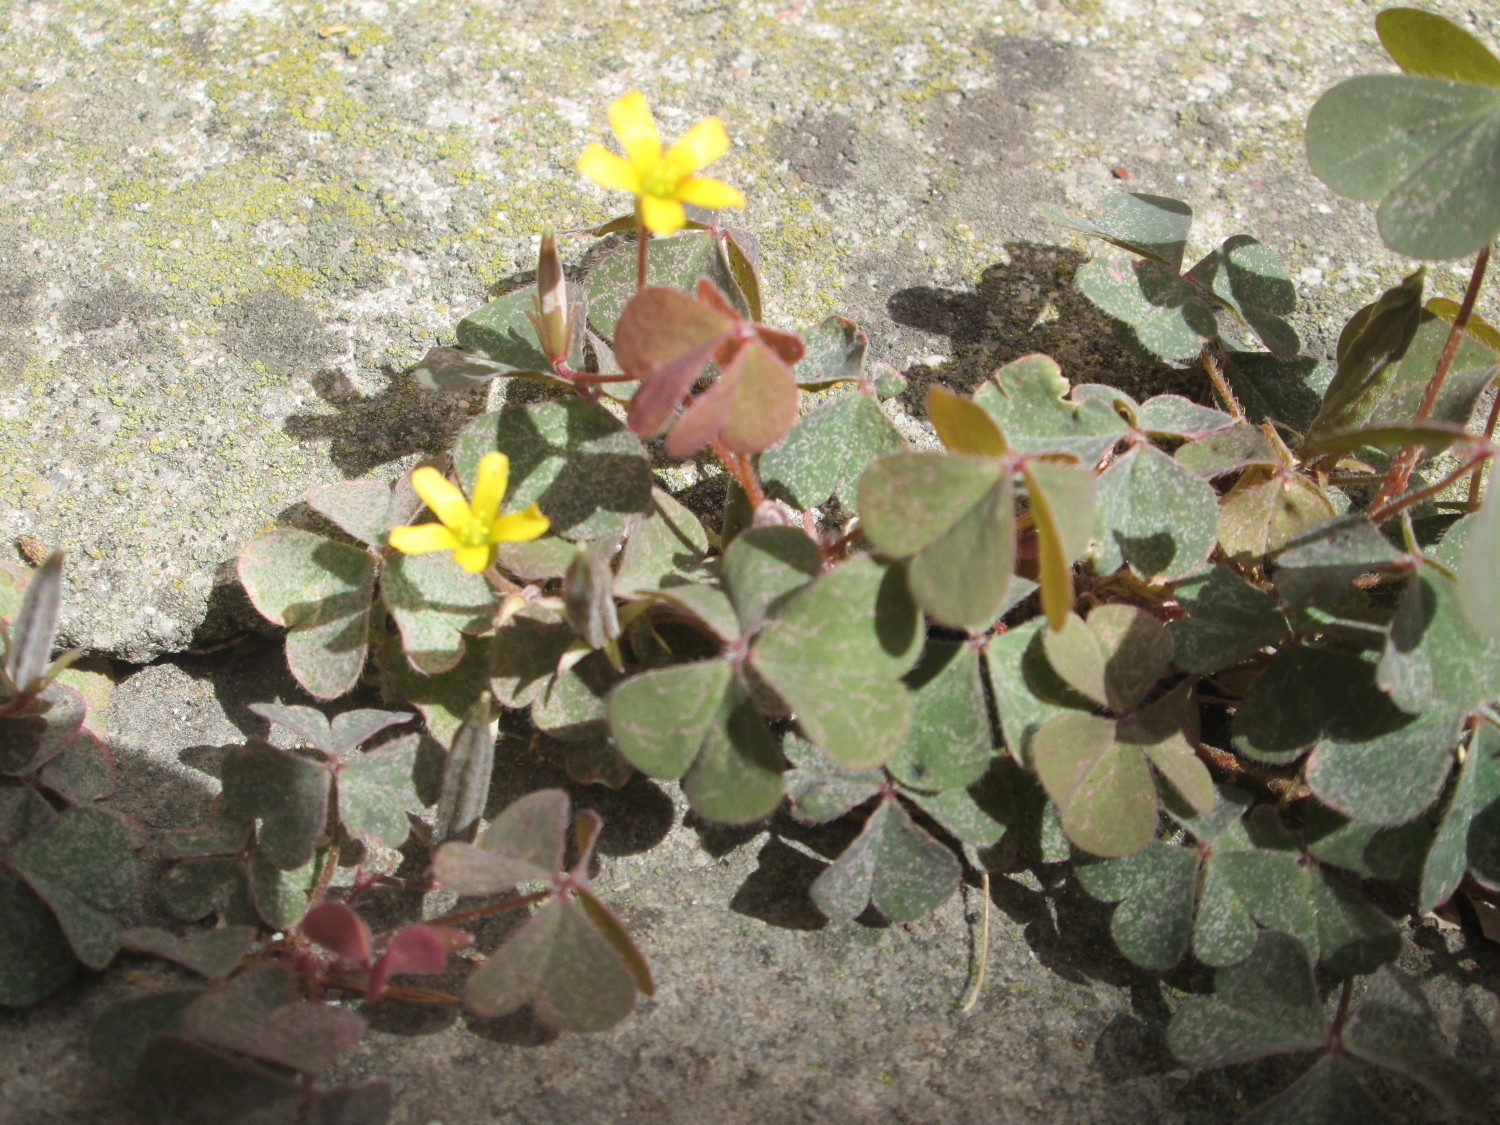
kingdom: Plantae
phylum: Tracheophyta
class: Magnoliopsida
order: Oxalidales
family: Oxalidaceae
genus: Oxalis
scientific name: Oxalis corniculata
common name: Procumbent yellow-sorrel
